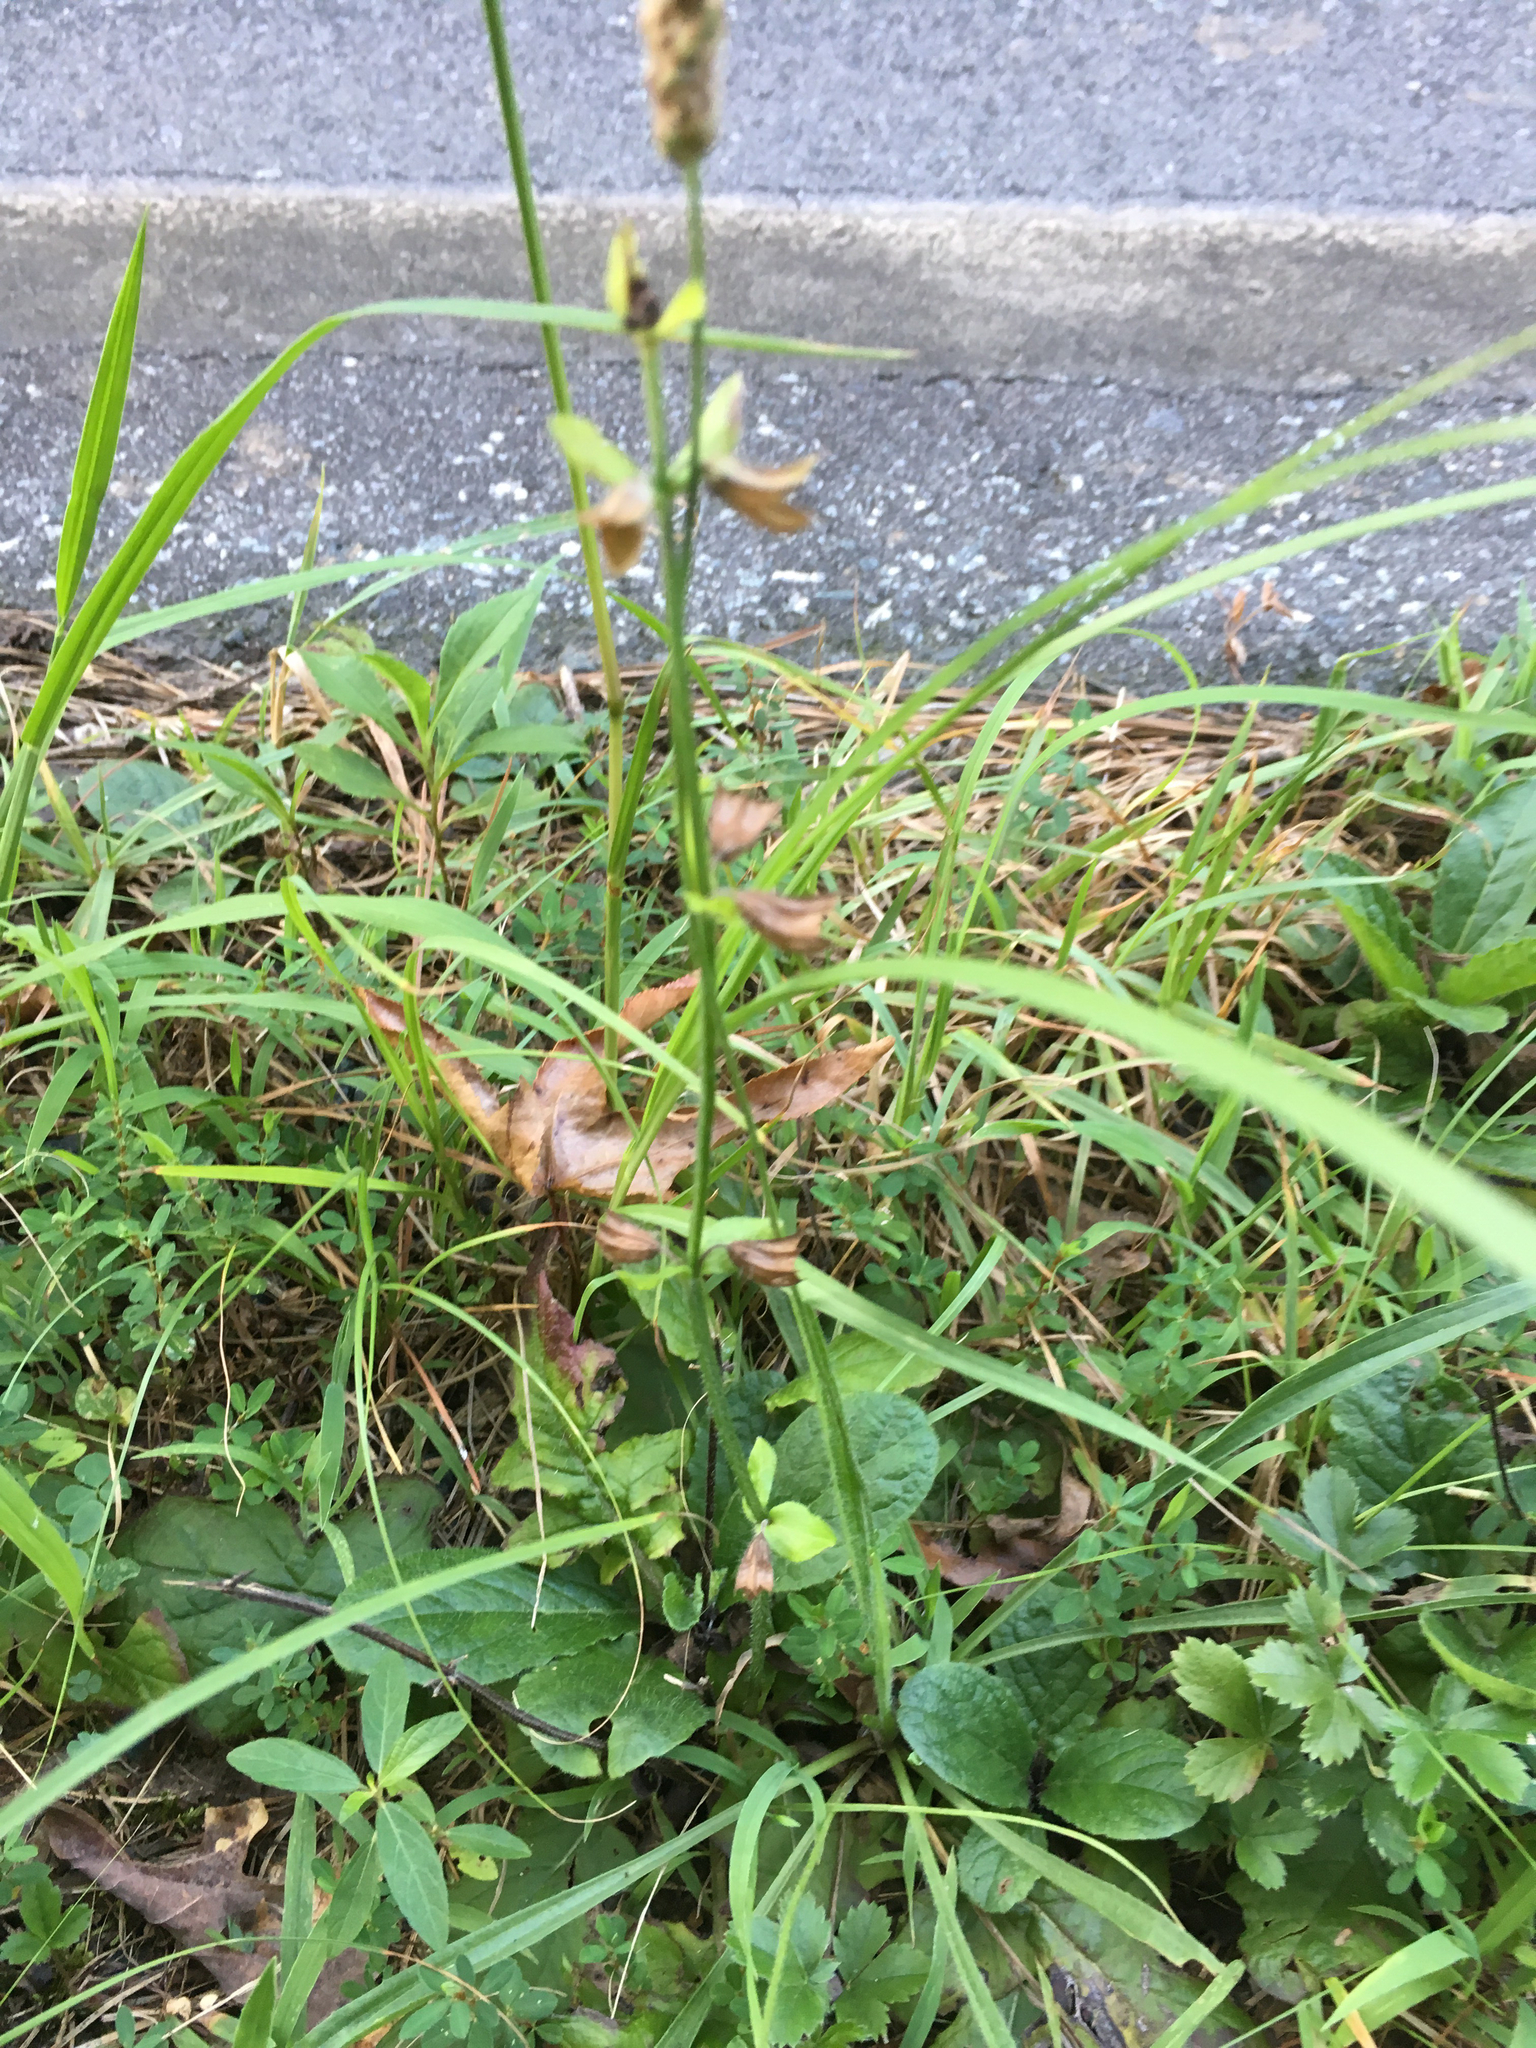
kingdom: Plantae
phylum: Tracheophyta
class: Magnoliopsida
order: Lamiales
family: Lamiaceae
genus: Salvia
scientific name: Salvia lyrata
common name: Cancerweed
